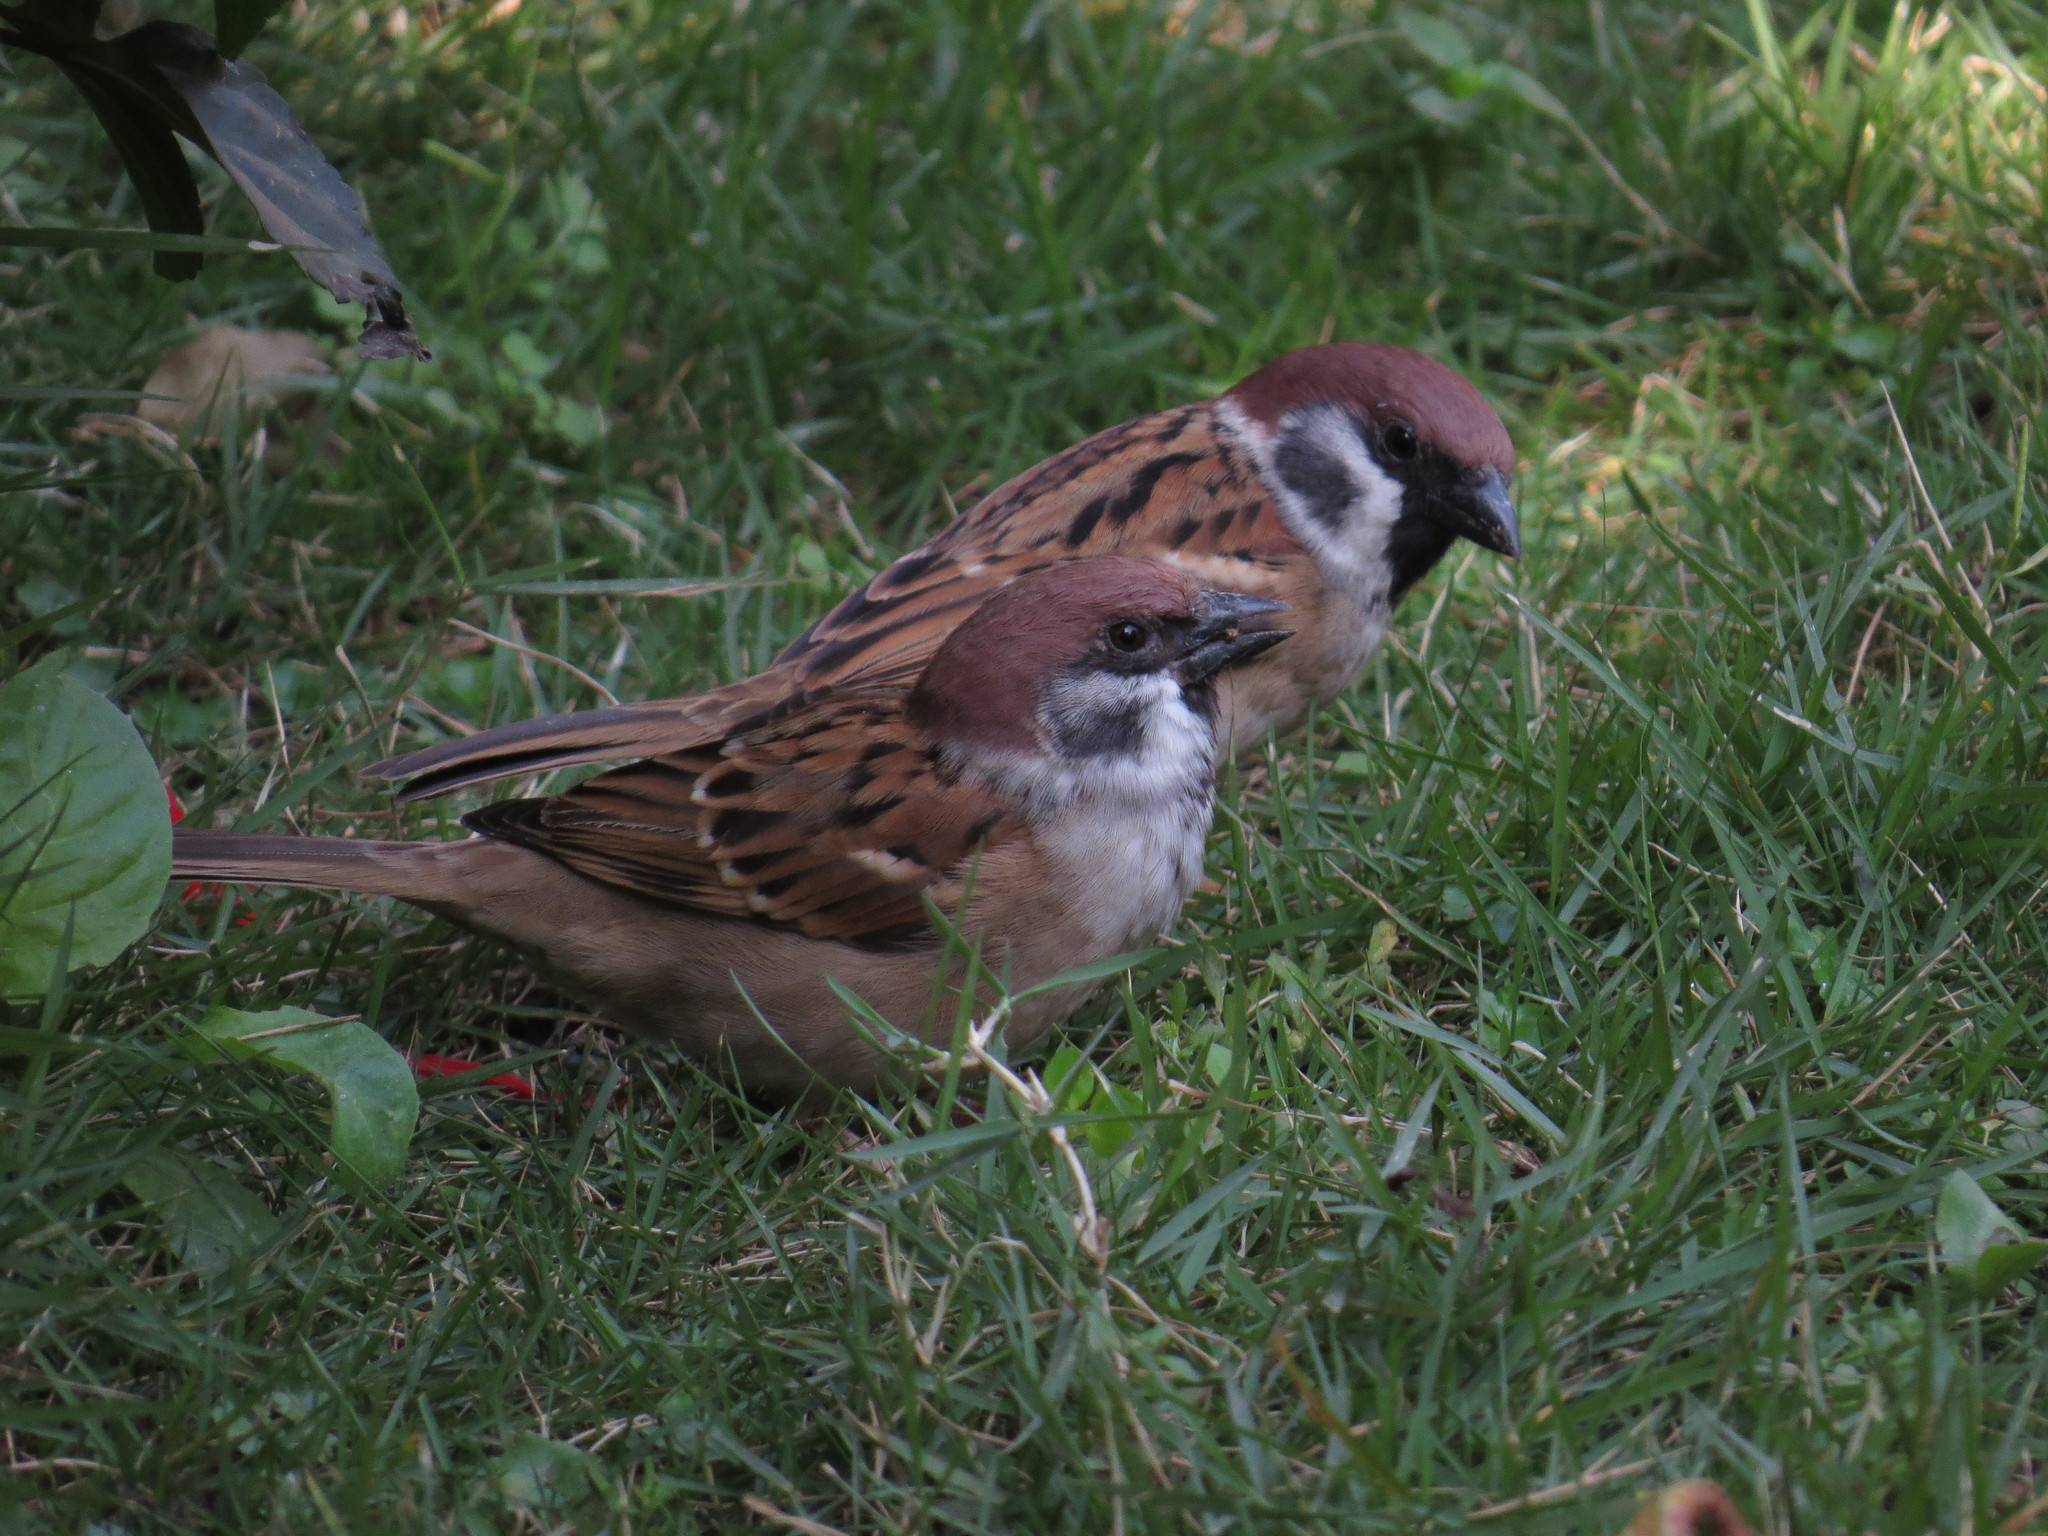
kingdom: Animalia
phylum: Chordata
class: Aves
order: Passeriformes
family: Passeridae
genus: Passer
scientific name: Passer montanus
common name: Eurasian tree sparrow
